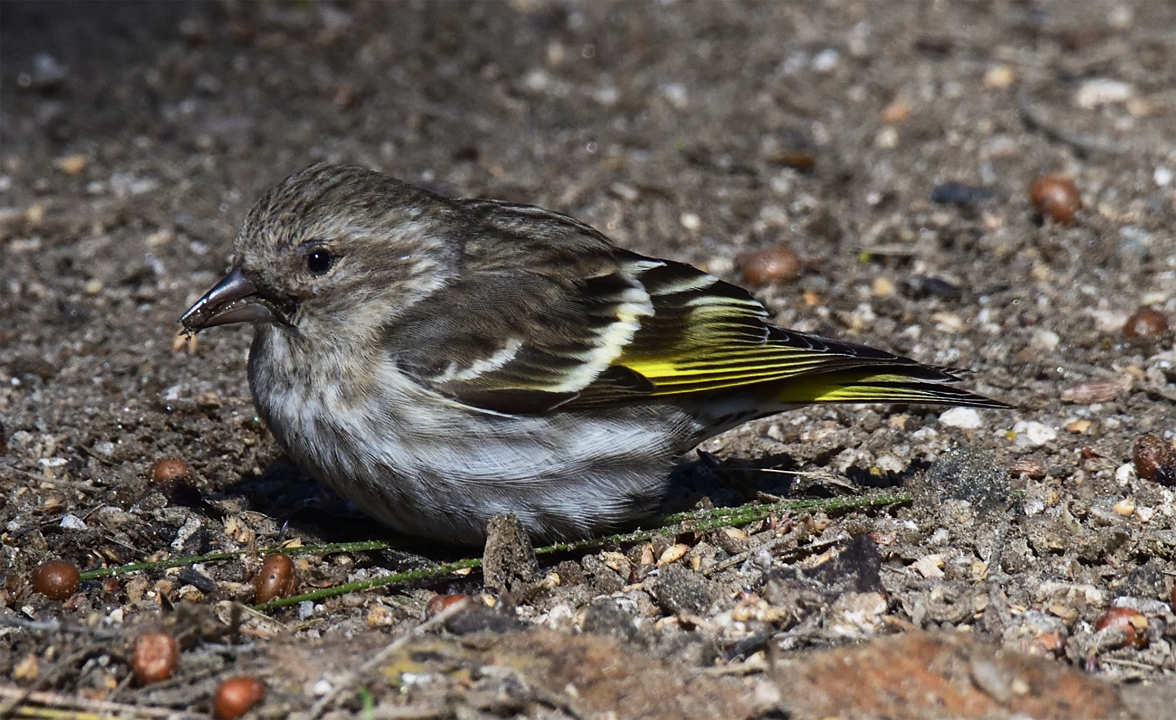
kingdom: Animalia
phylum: Chordata
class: Aves
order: Passeriformes
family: Fringillidae
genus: Spinus
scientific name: Spinus pinus
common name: Pine siskin
